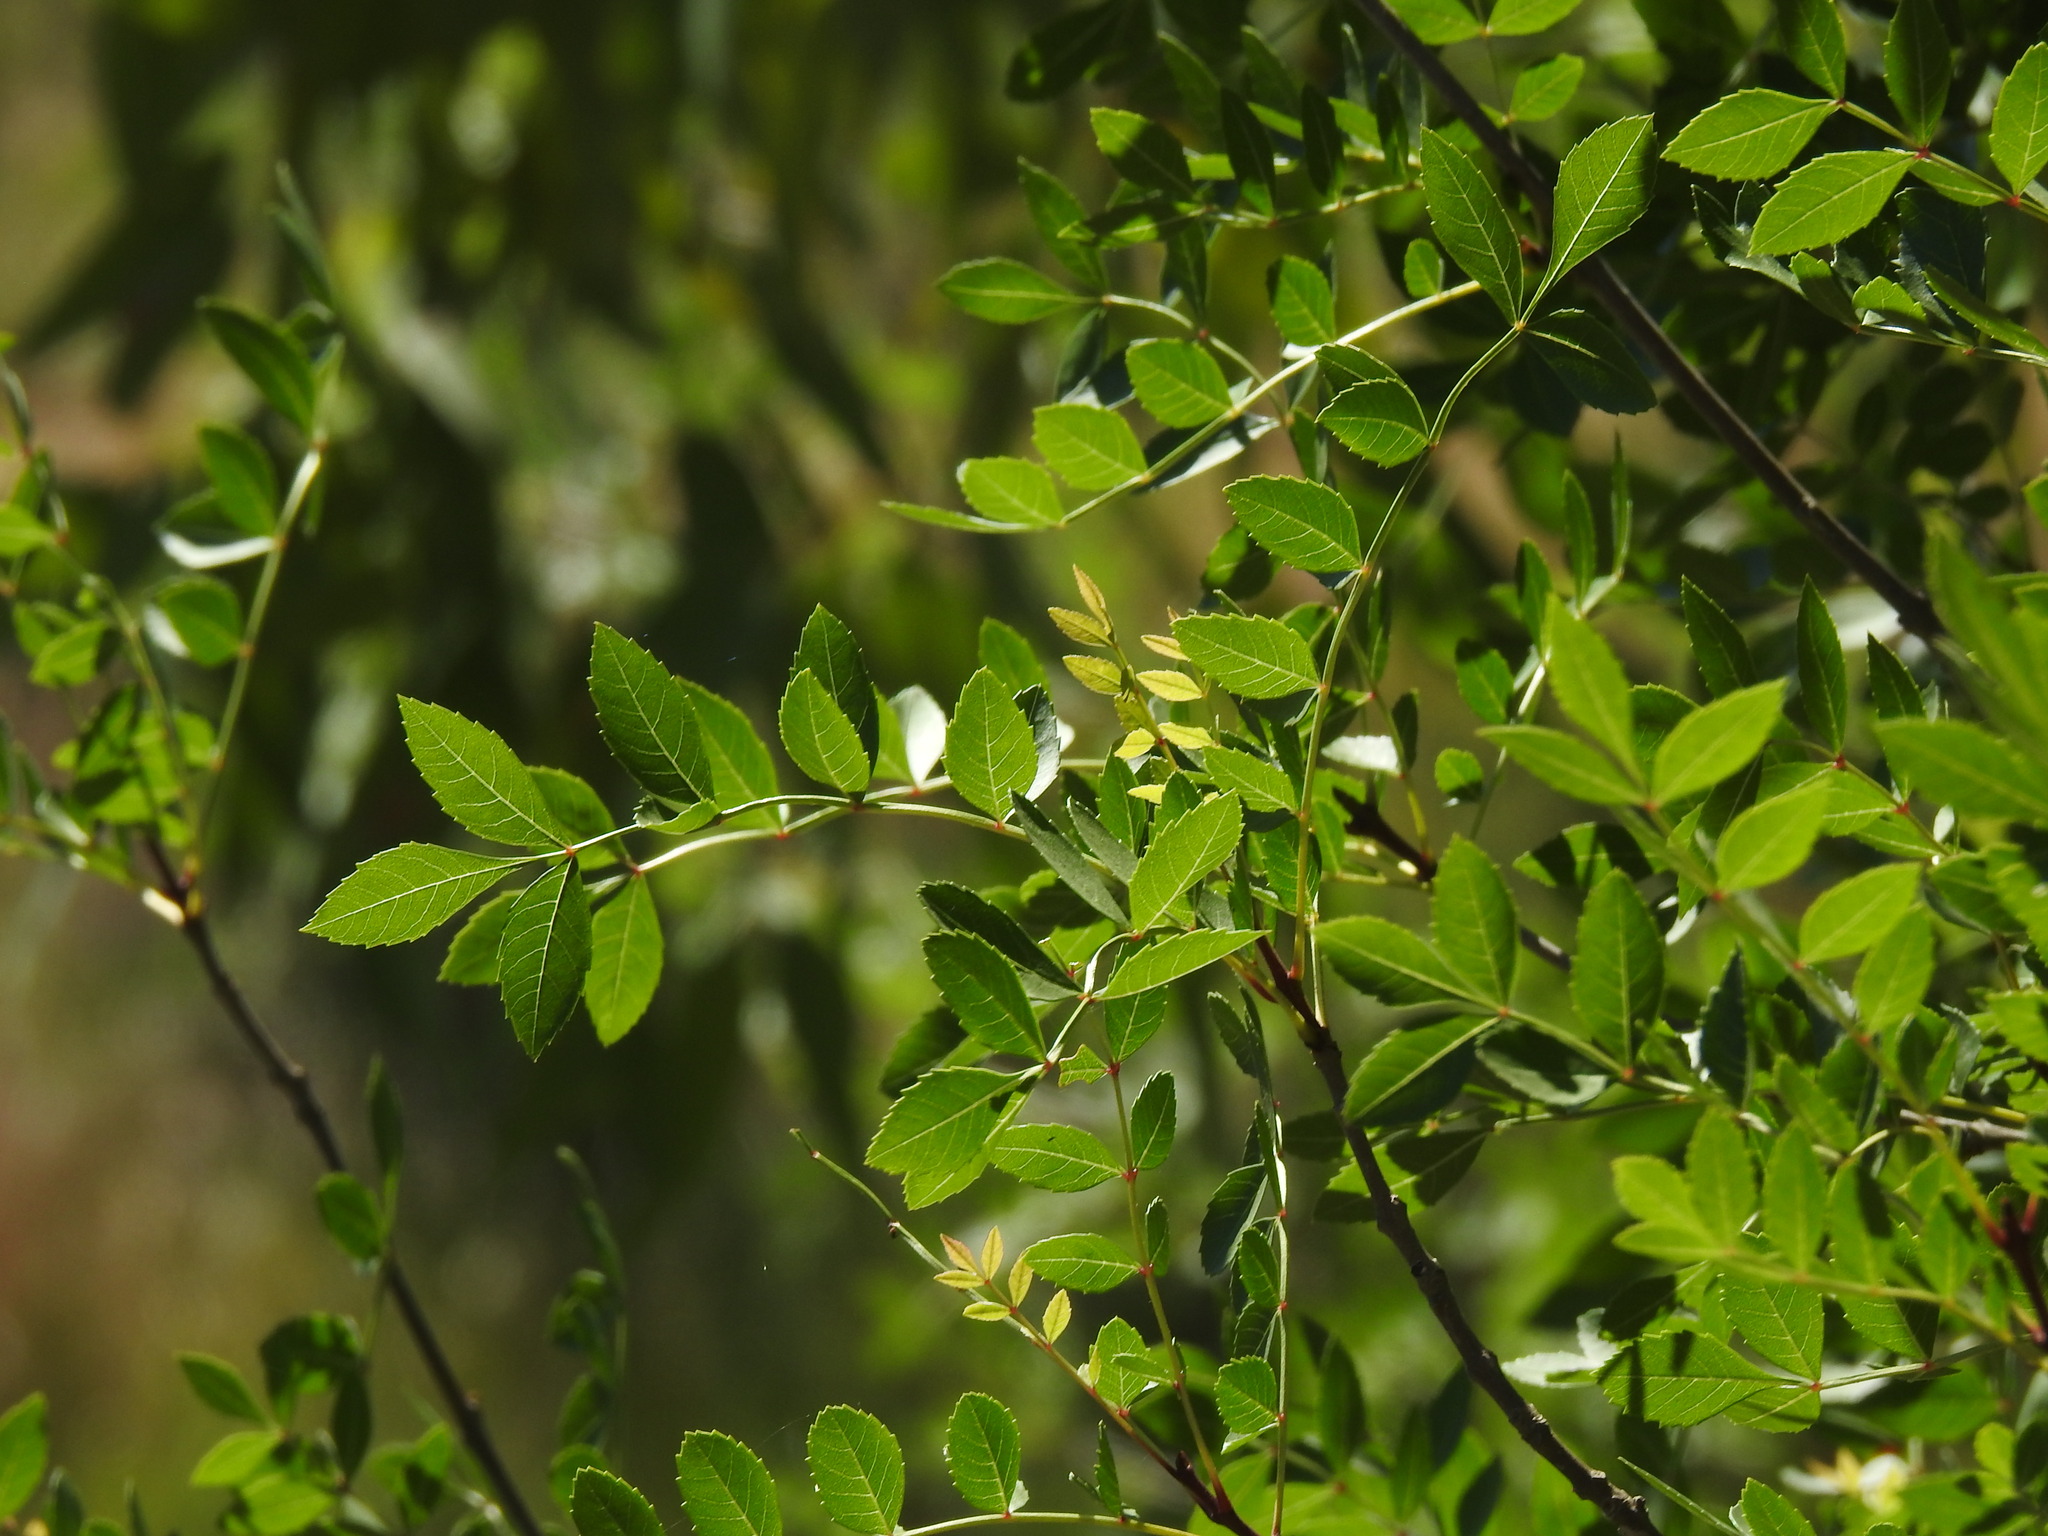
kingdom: Plantae
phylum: Tracheophyta
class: Magnoliopsida
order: Lamiales
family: Oleaceae
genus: Fraxinus
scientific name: Fraxinus angustifolia
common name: Narrow-leafed ash
